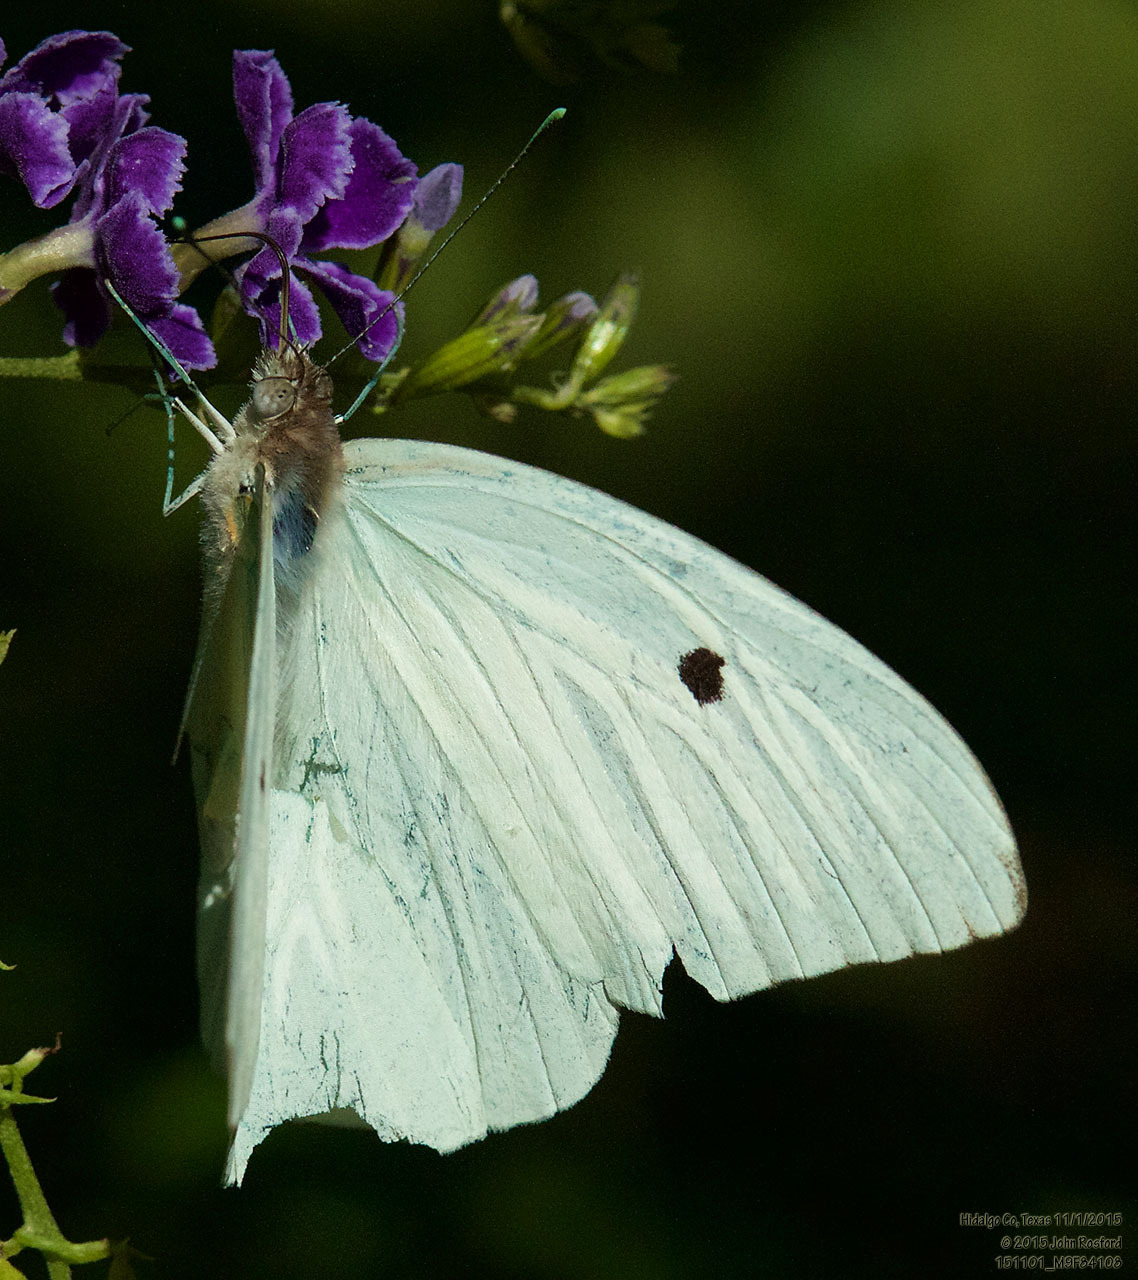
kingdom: Animalia
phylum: Arthropoda
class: Insecta
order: Lepidoptera
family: Pieridae
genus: Ganyra
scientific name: Ganyra josephina
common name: Giant white
